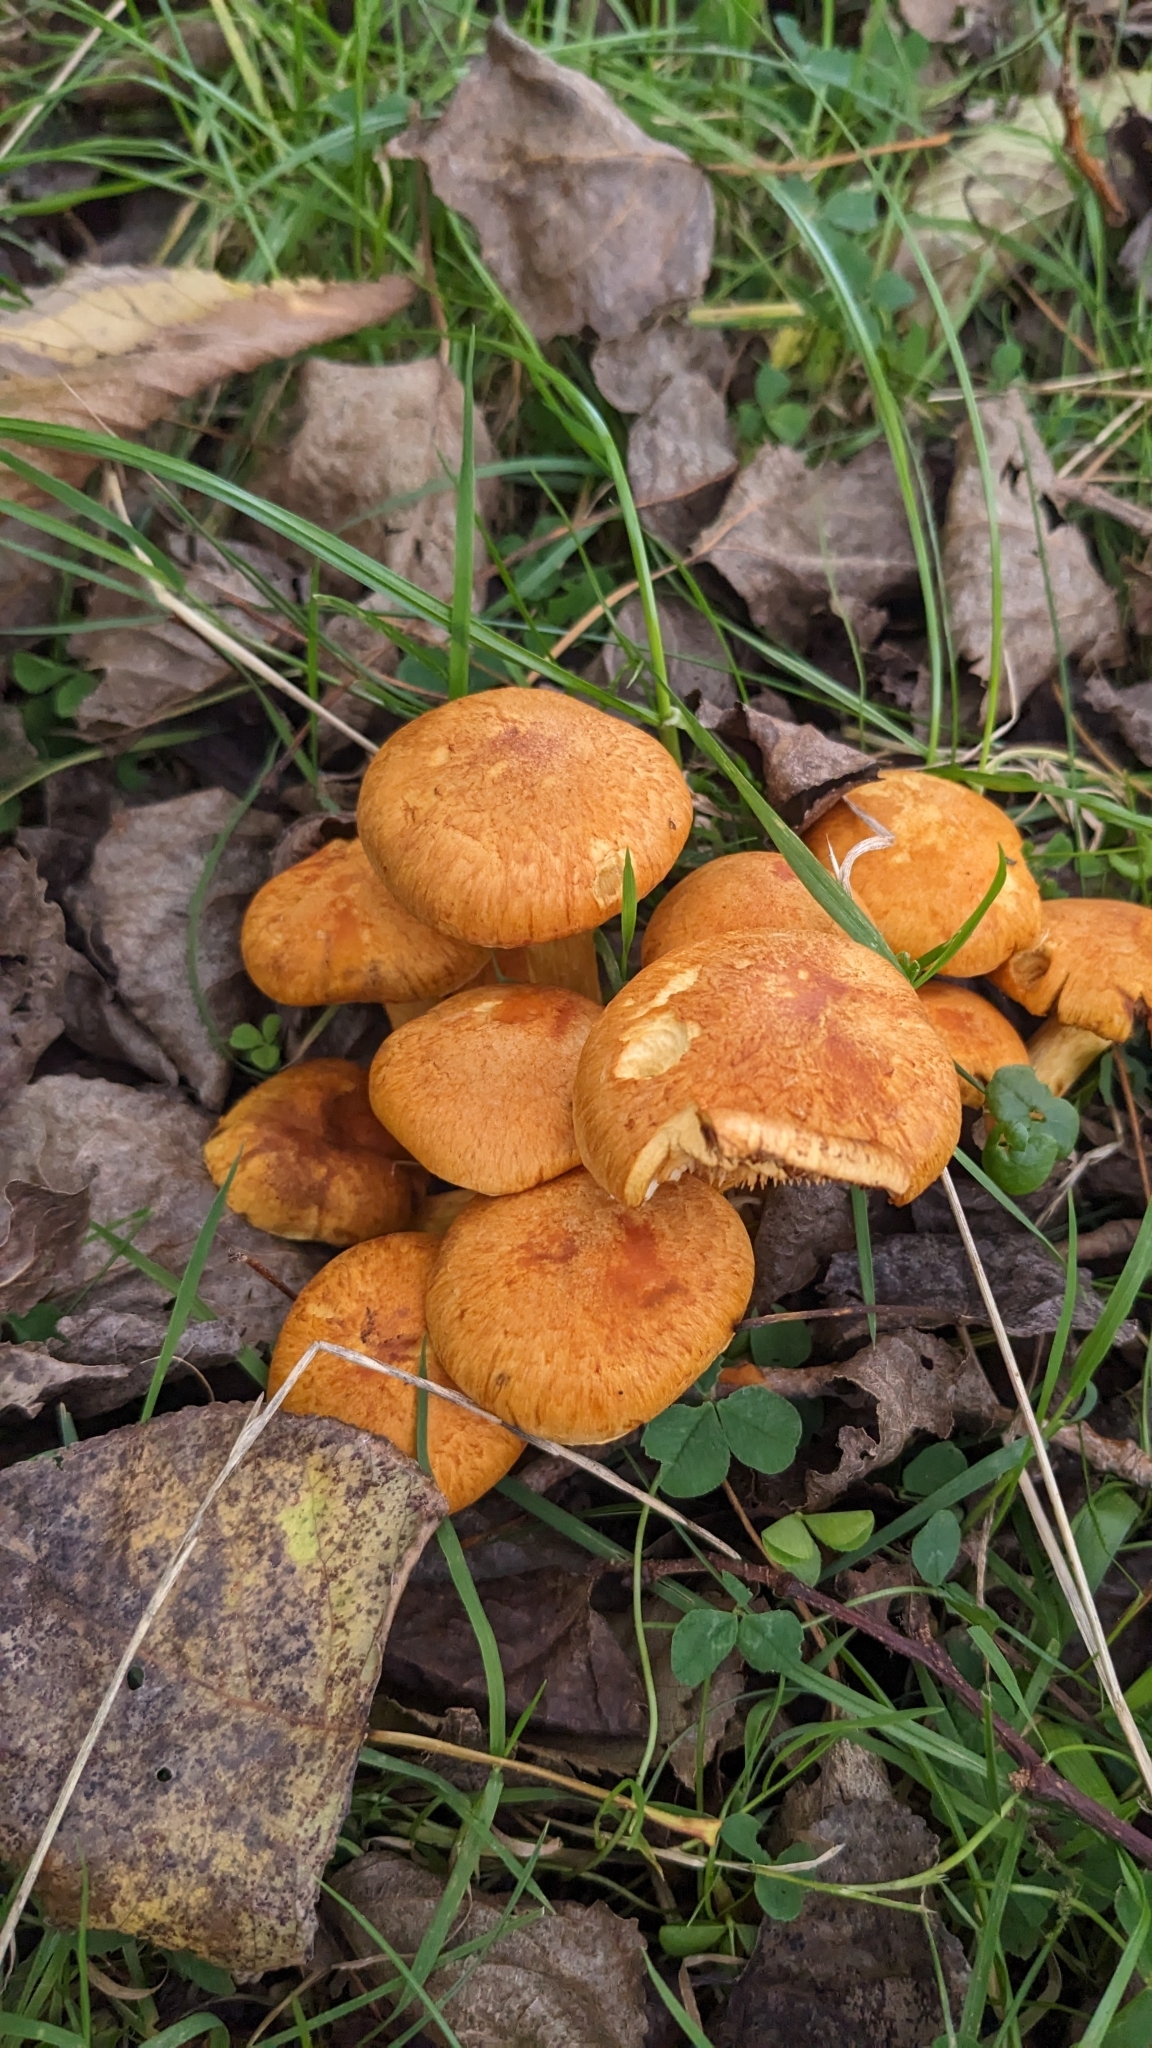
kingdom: Fungi
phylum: Basidiomycota
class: Agaricomycetes
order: Agaricales
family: Hymenogastraceae
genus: Gymnopilus
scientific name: Gymnopilus junonius
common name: Spectacular rustgill
